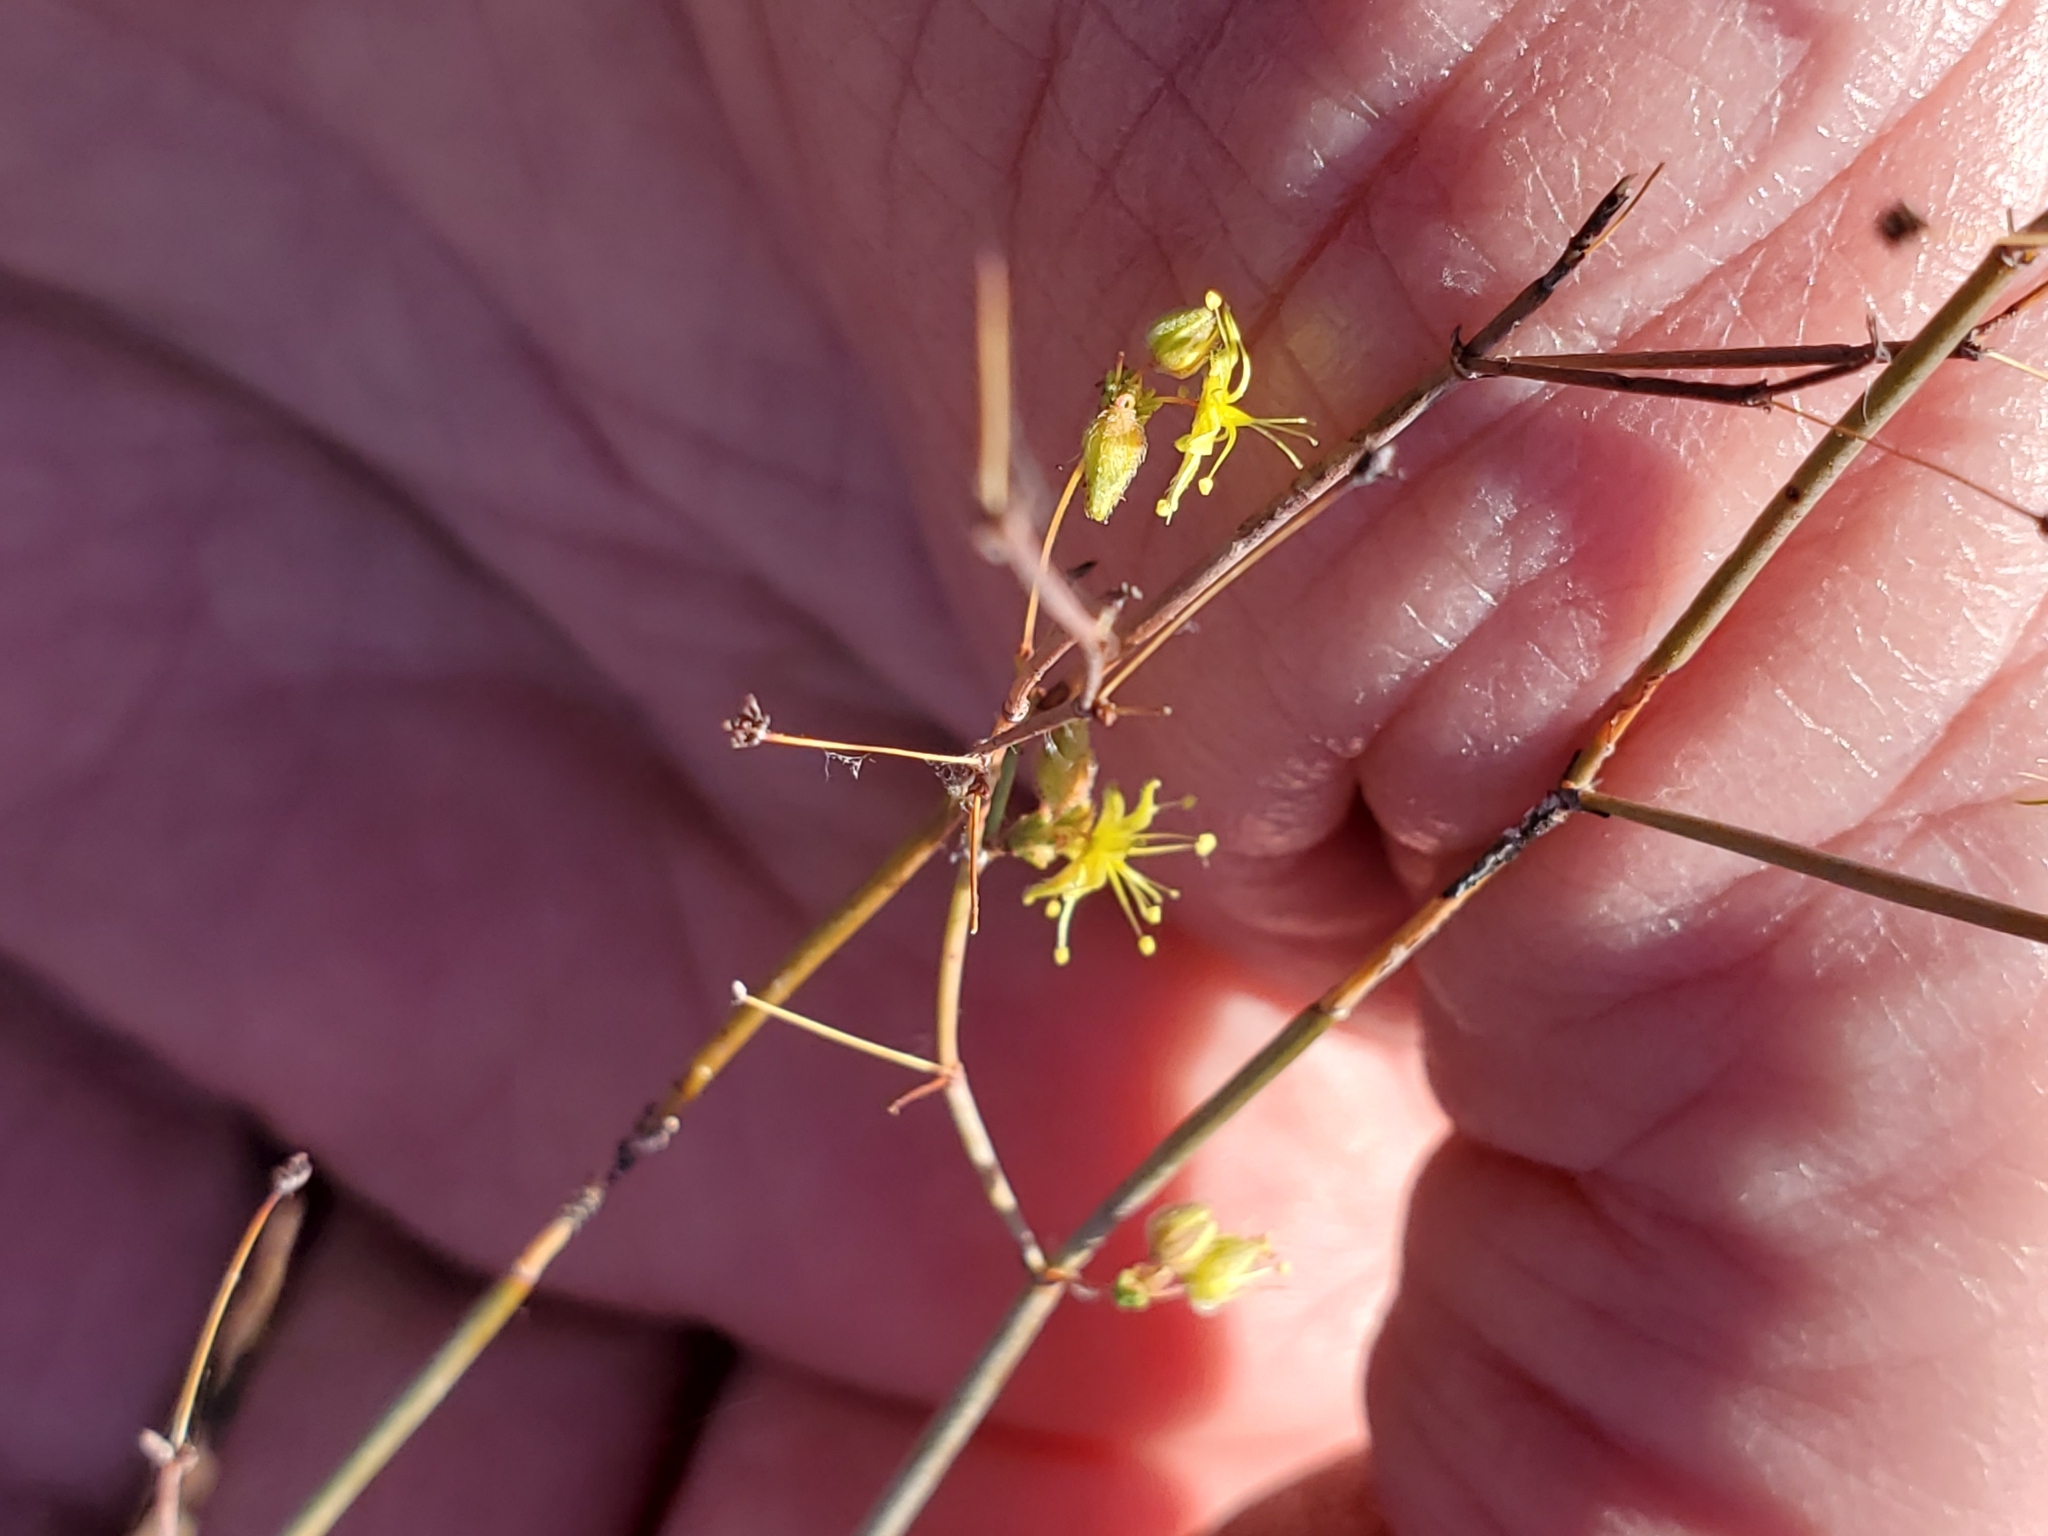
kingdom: Plantae
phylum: Tracheophyta
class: Magnoliopsida
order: Caryophyllales
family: Polygonaceae
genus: Eriogonum
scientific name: Eriogonum trichopes
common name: Little desert trumpet
